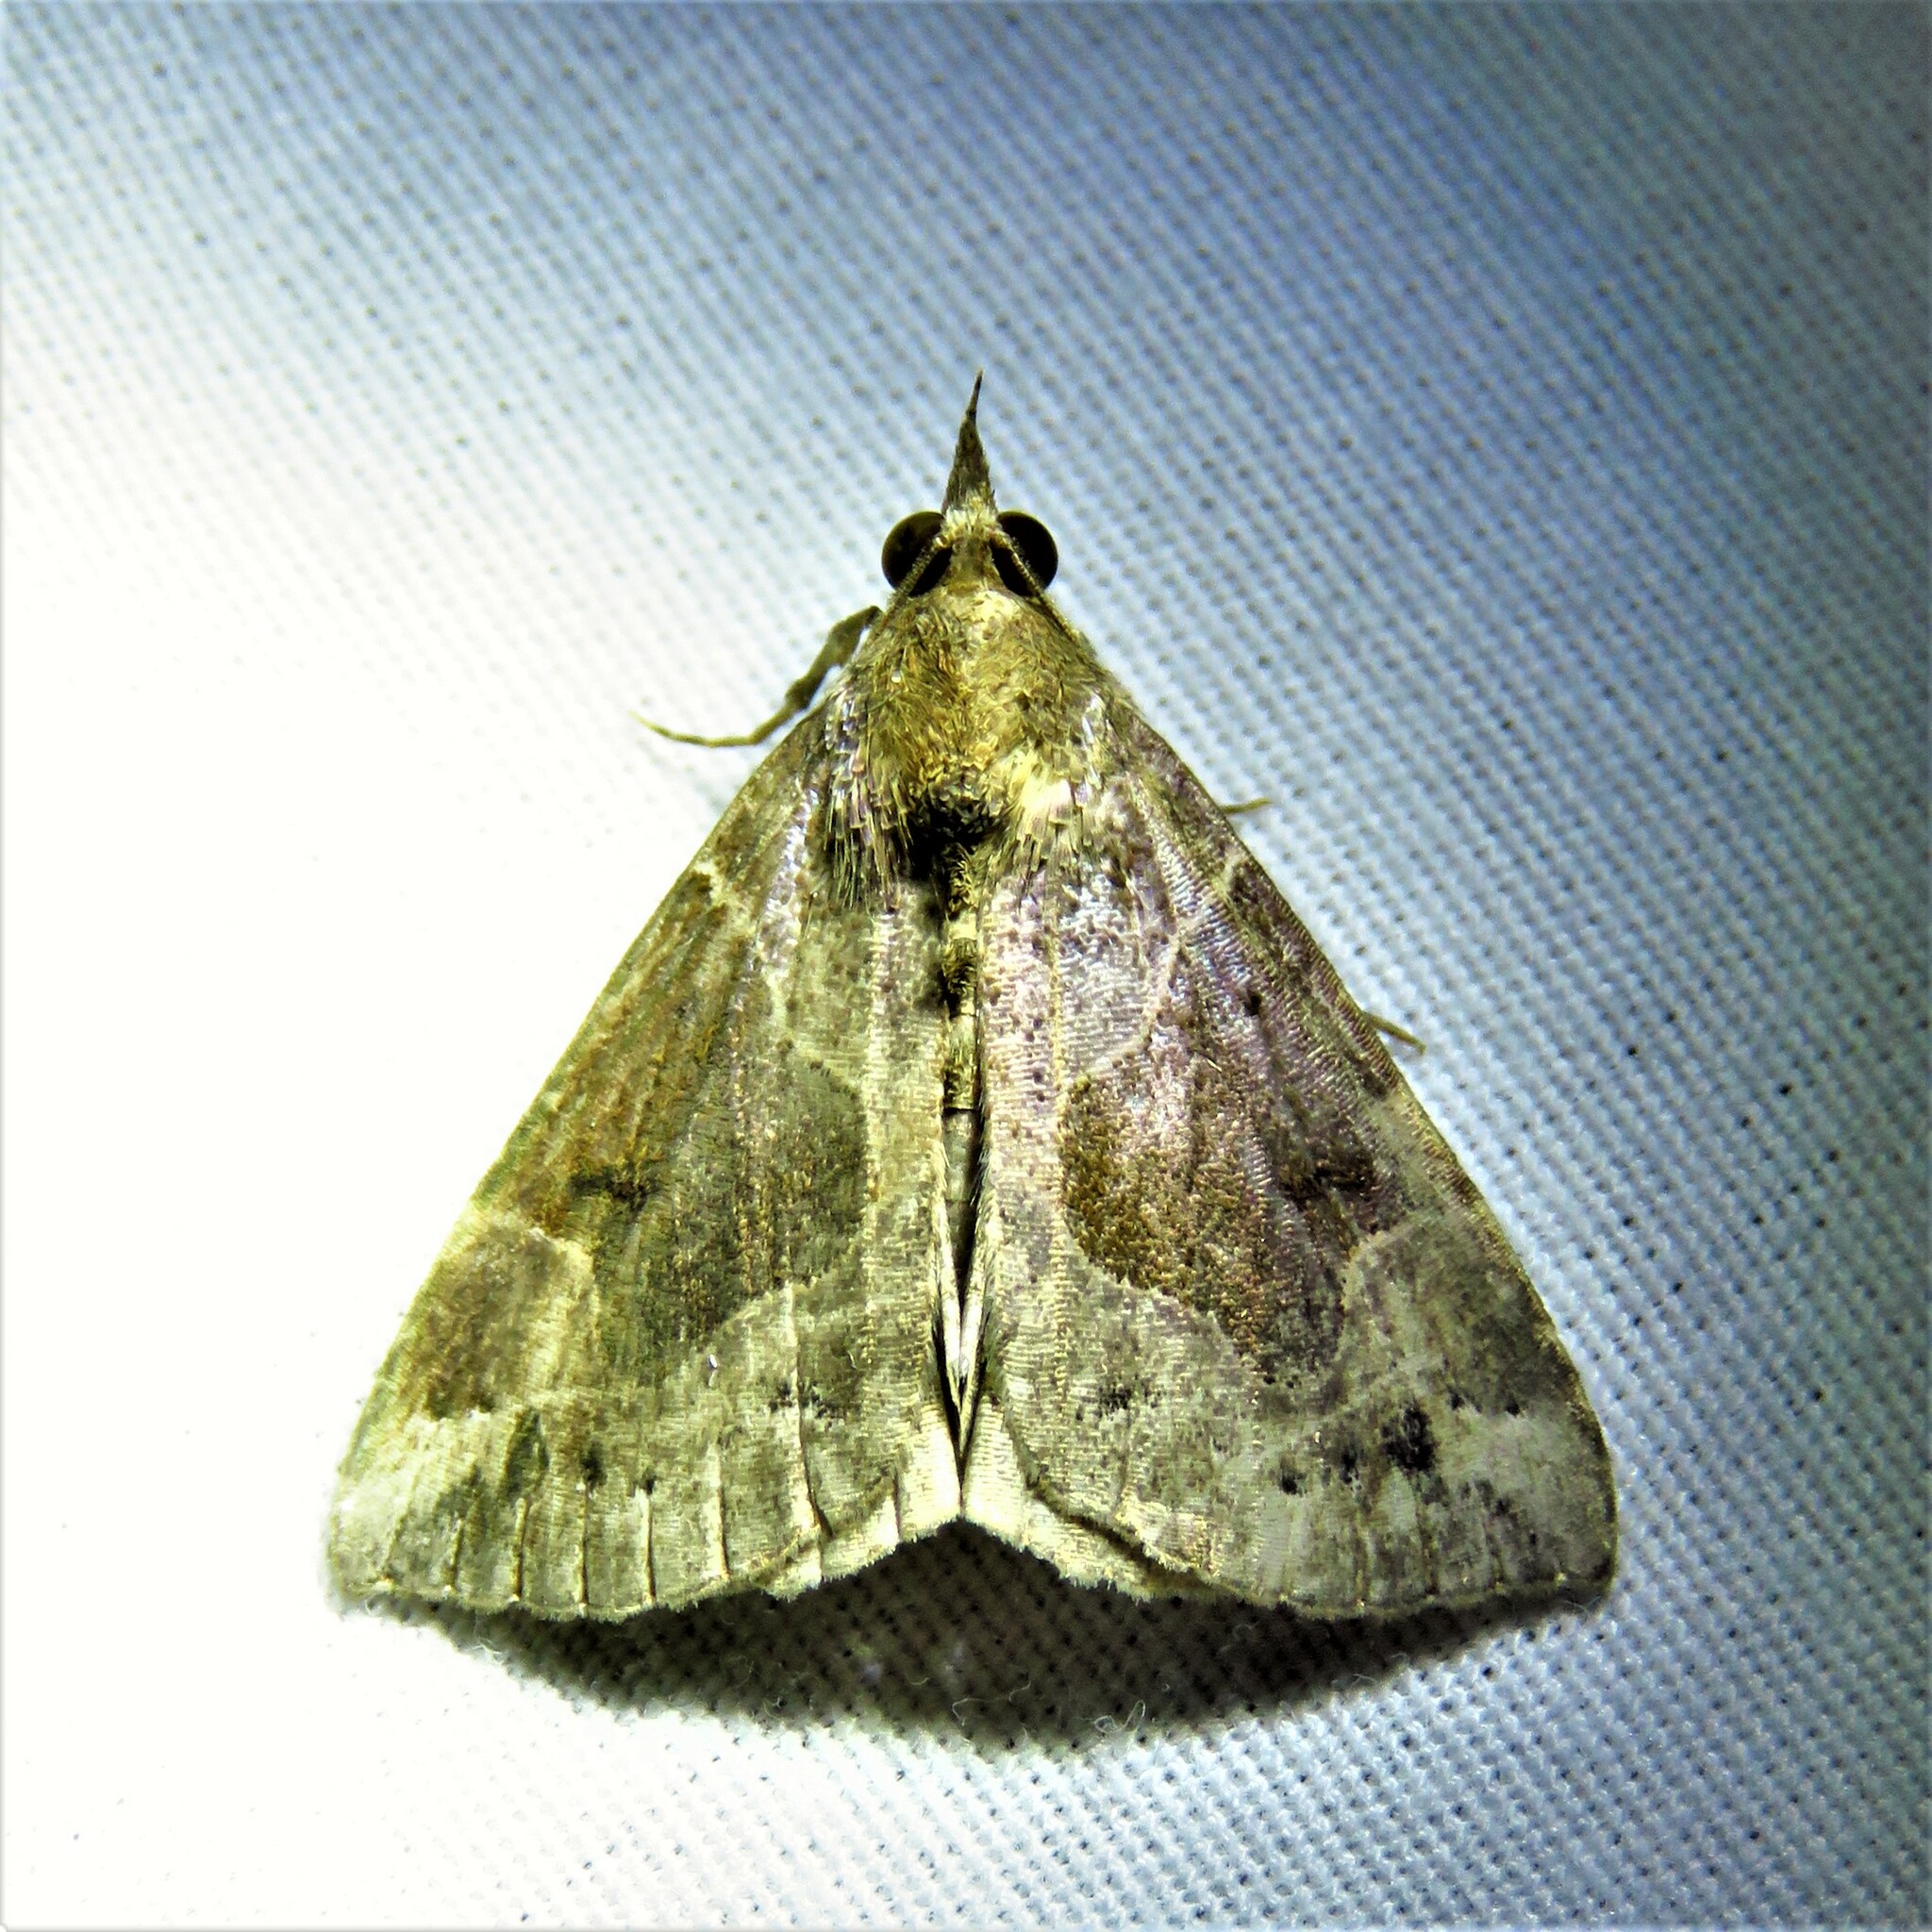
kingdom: Animalia
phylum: Arthropoda
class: Insecta
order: Lepidoptera
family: Erebidae
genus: Hypena
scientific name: Hypena manalis
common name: Flowing-line bomolocha moth
